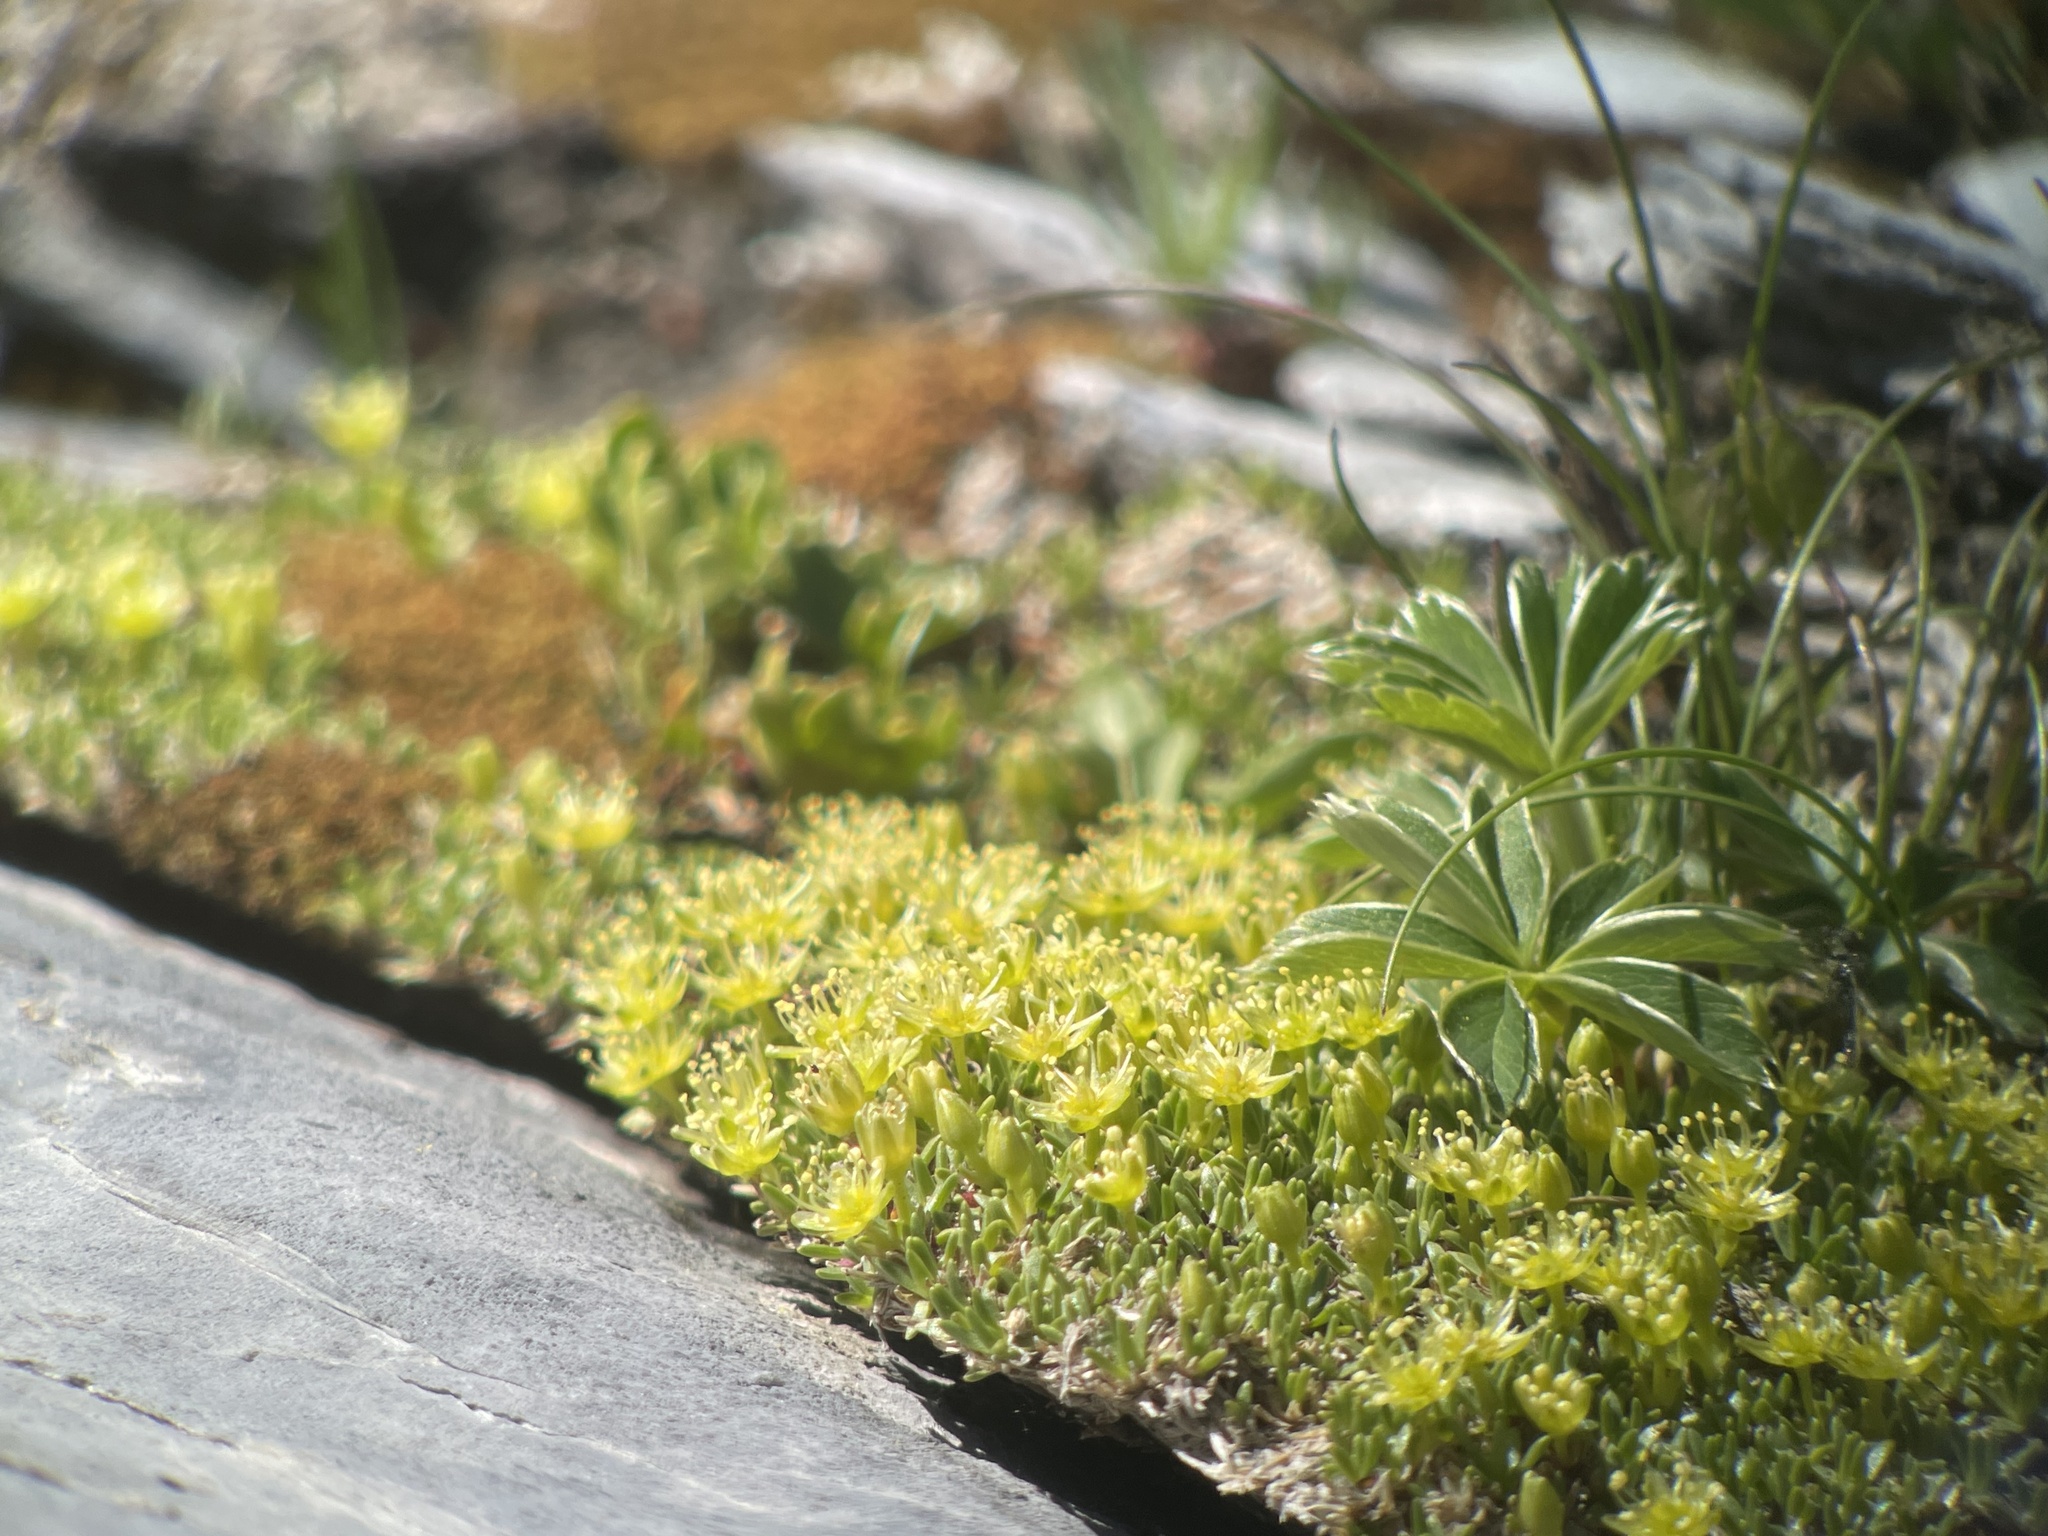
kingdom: Plantae
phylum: Tracheophyta
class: Magnoliopsida
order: Caryophyllales
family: Caryophyllaceae
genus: Cherleria
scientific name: Cherleria sedoides
